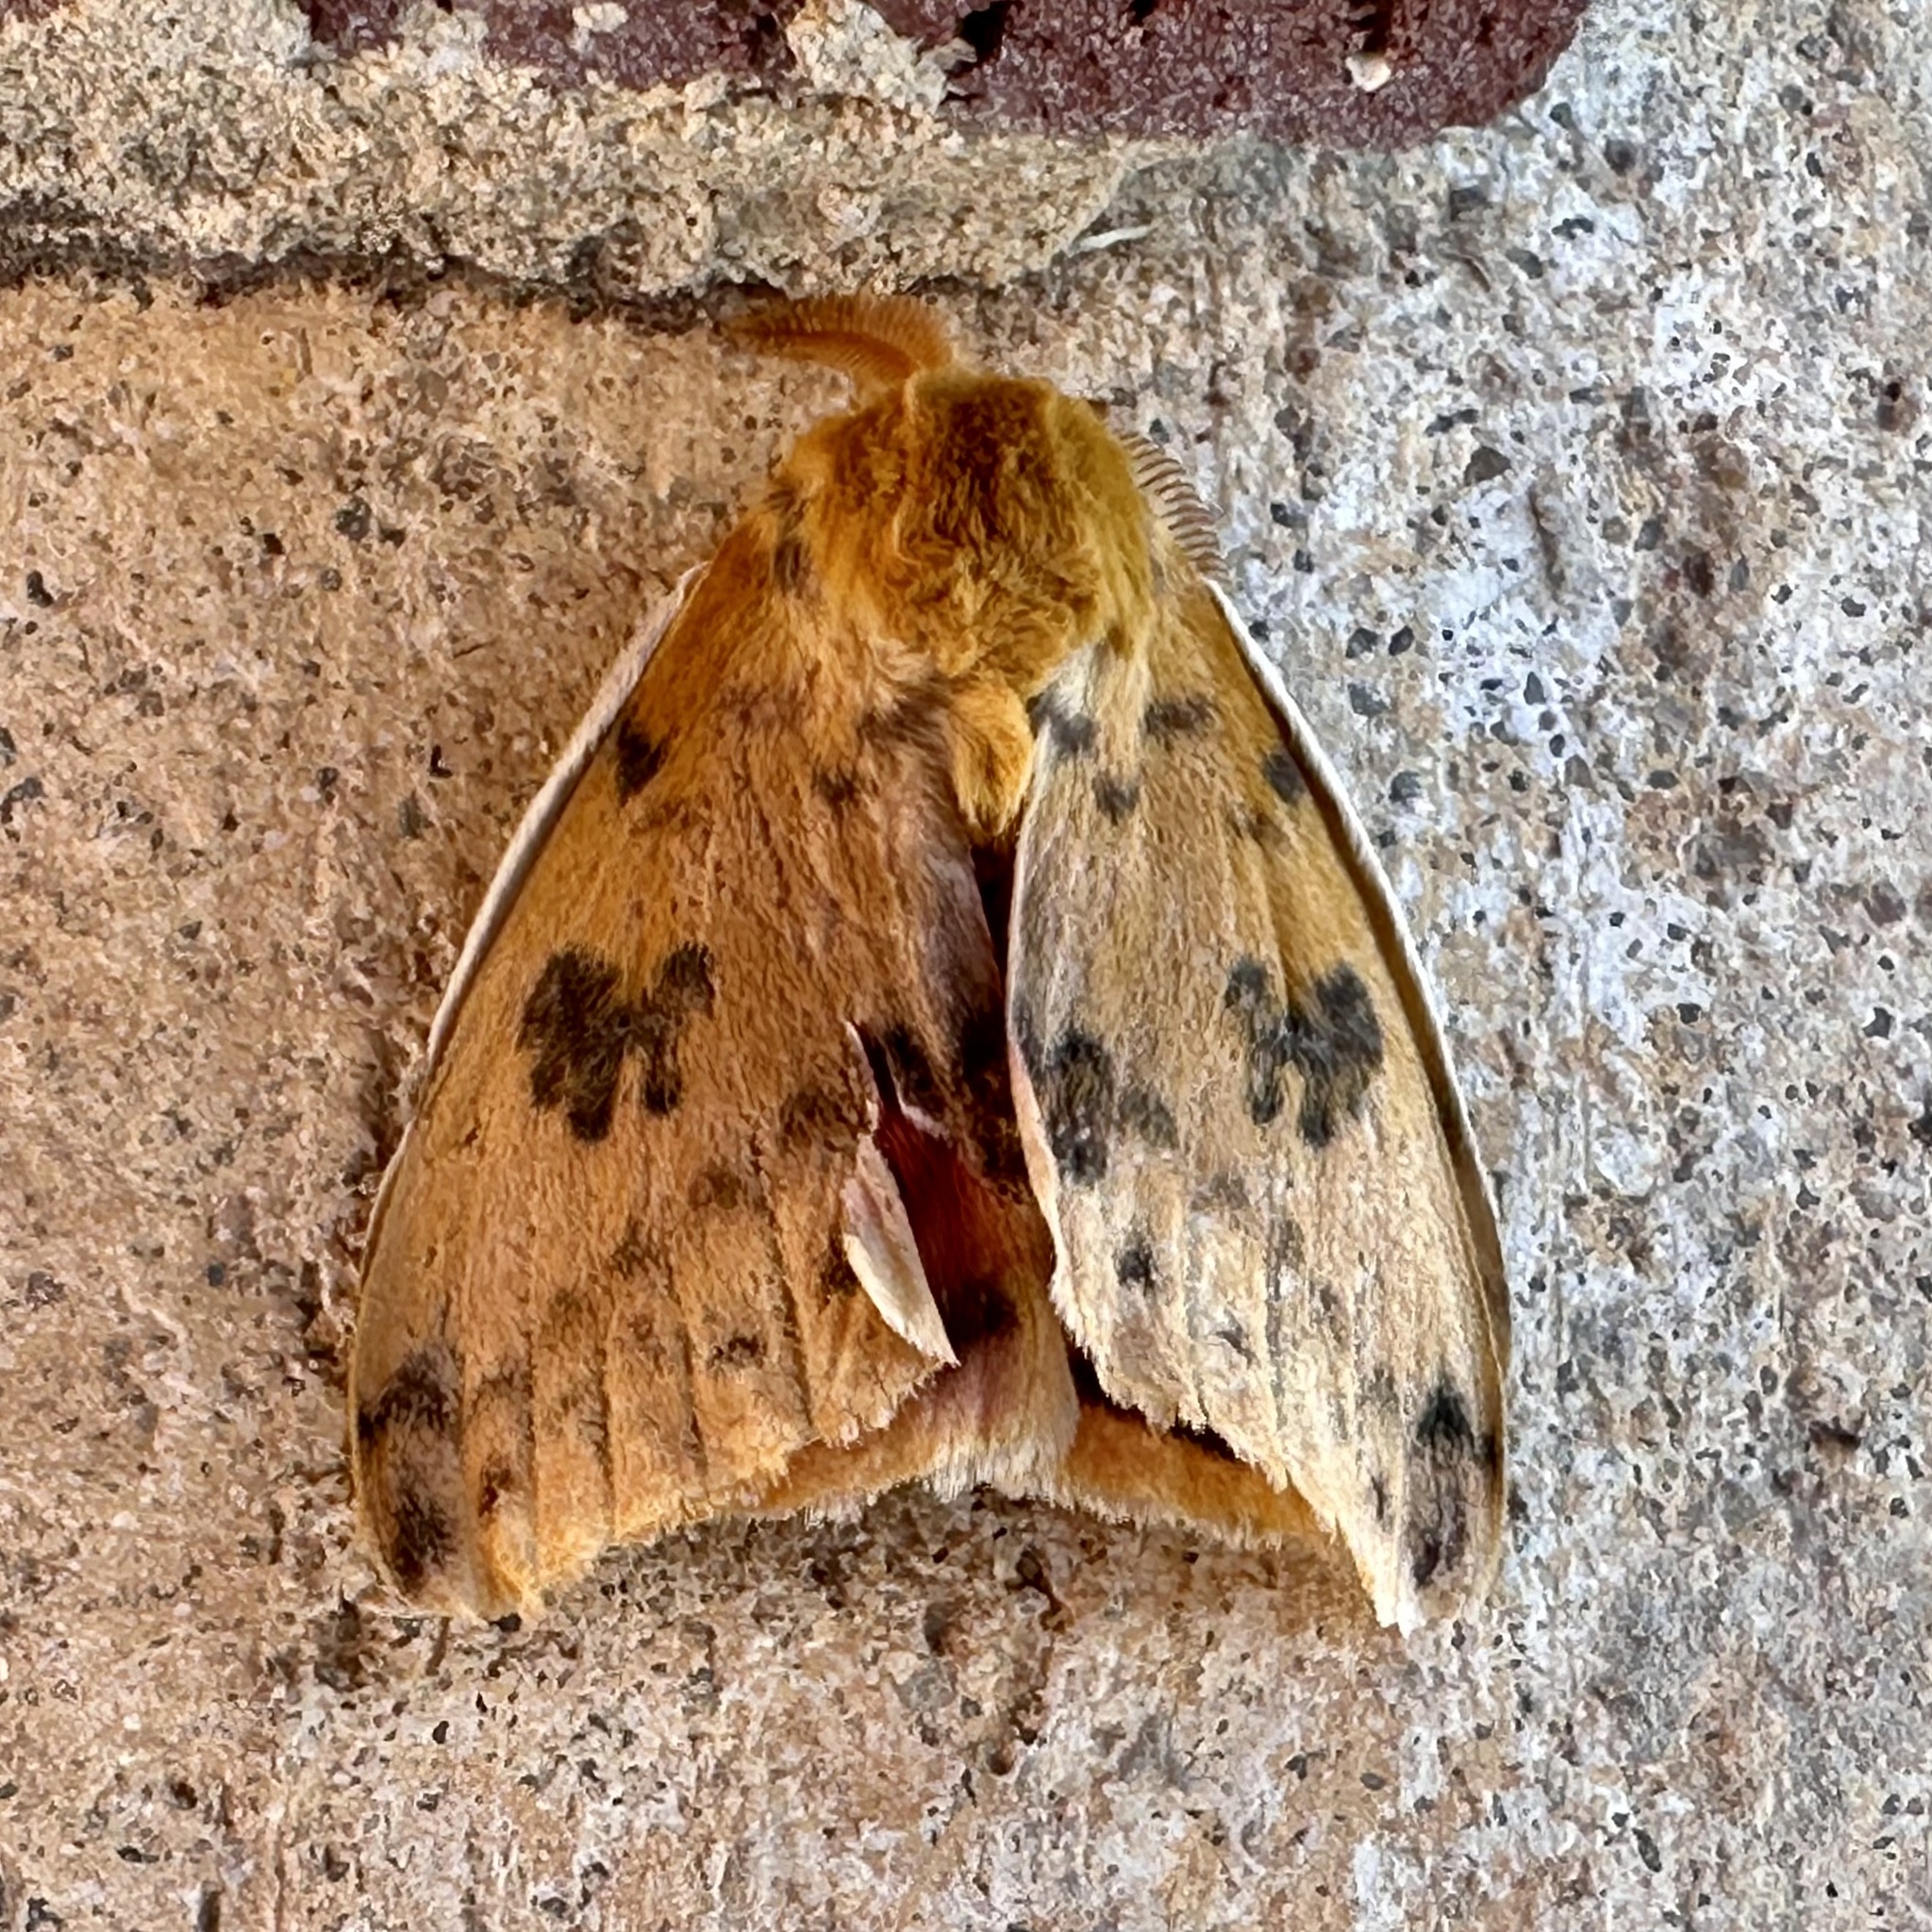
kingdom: Animalia
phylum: Arthropoda
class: Insecta
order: Lepidoptera
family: Saturniidae
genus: Automeris
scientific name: Automeris io
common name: Io moth
